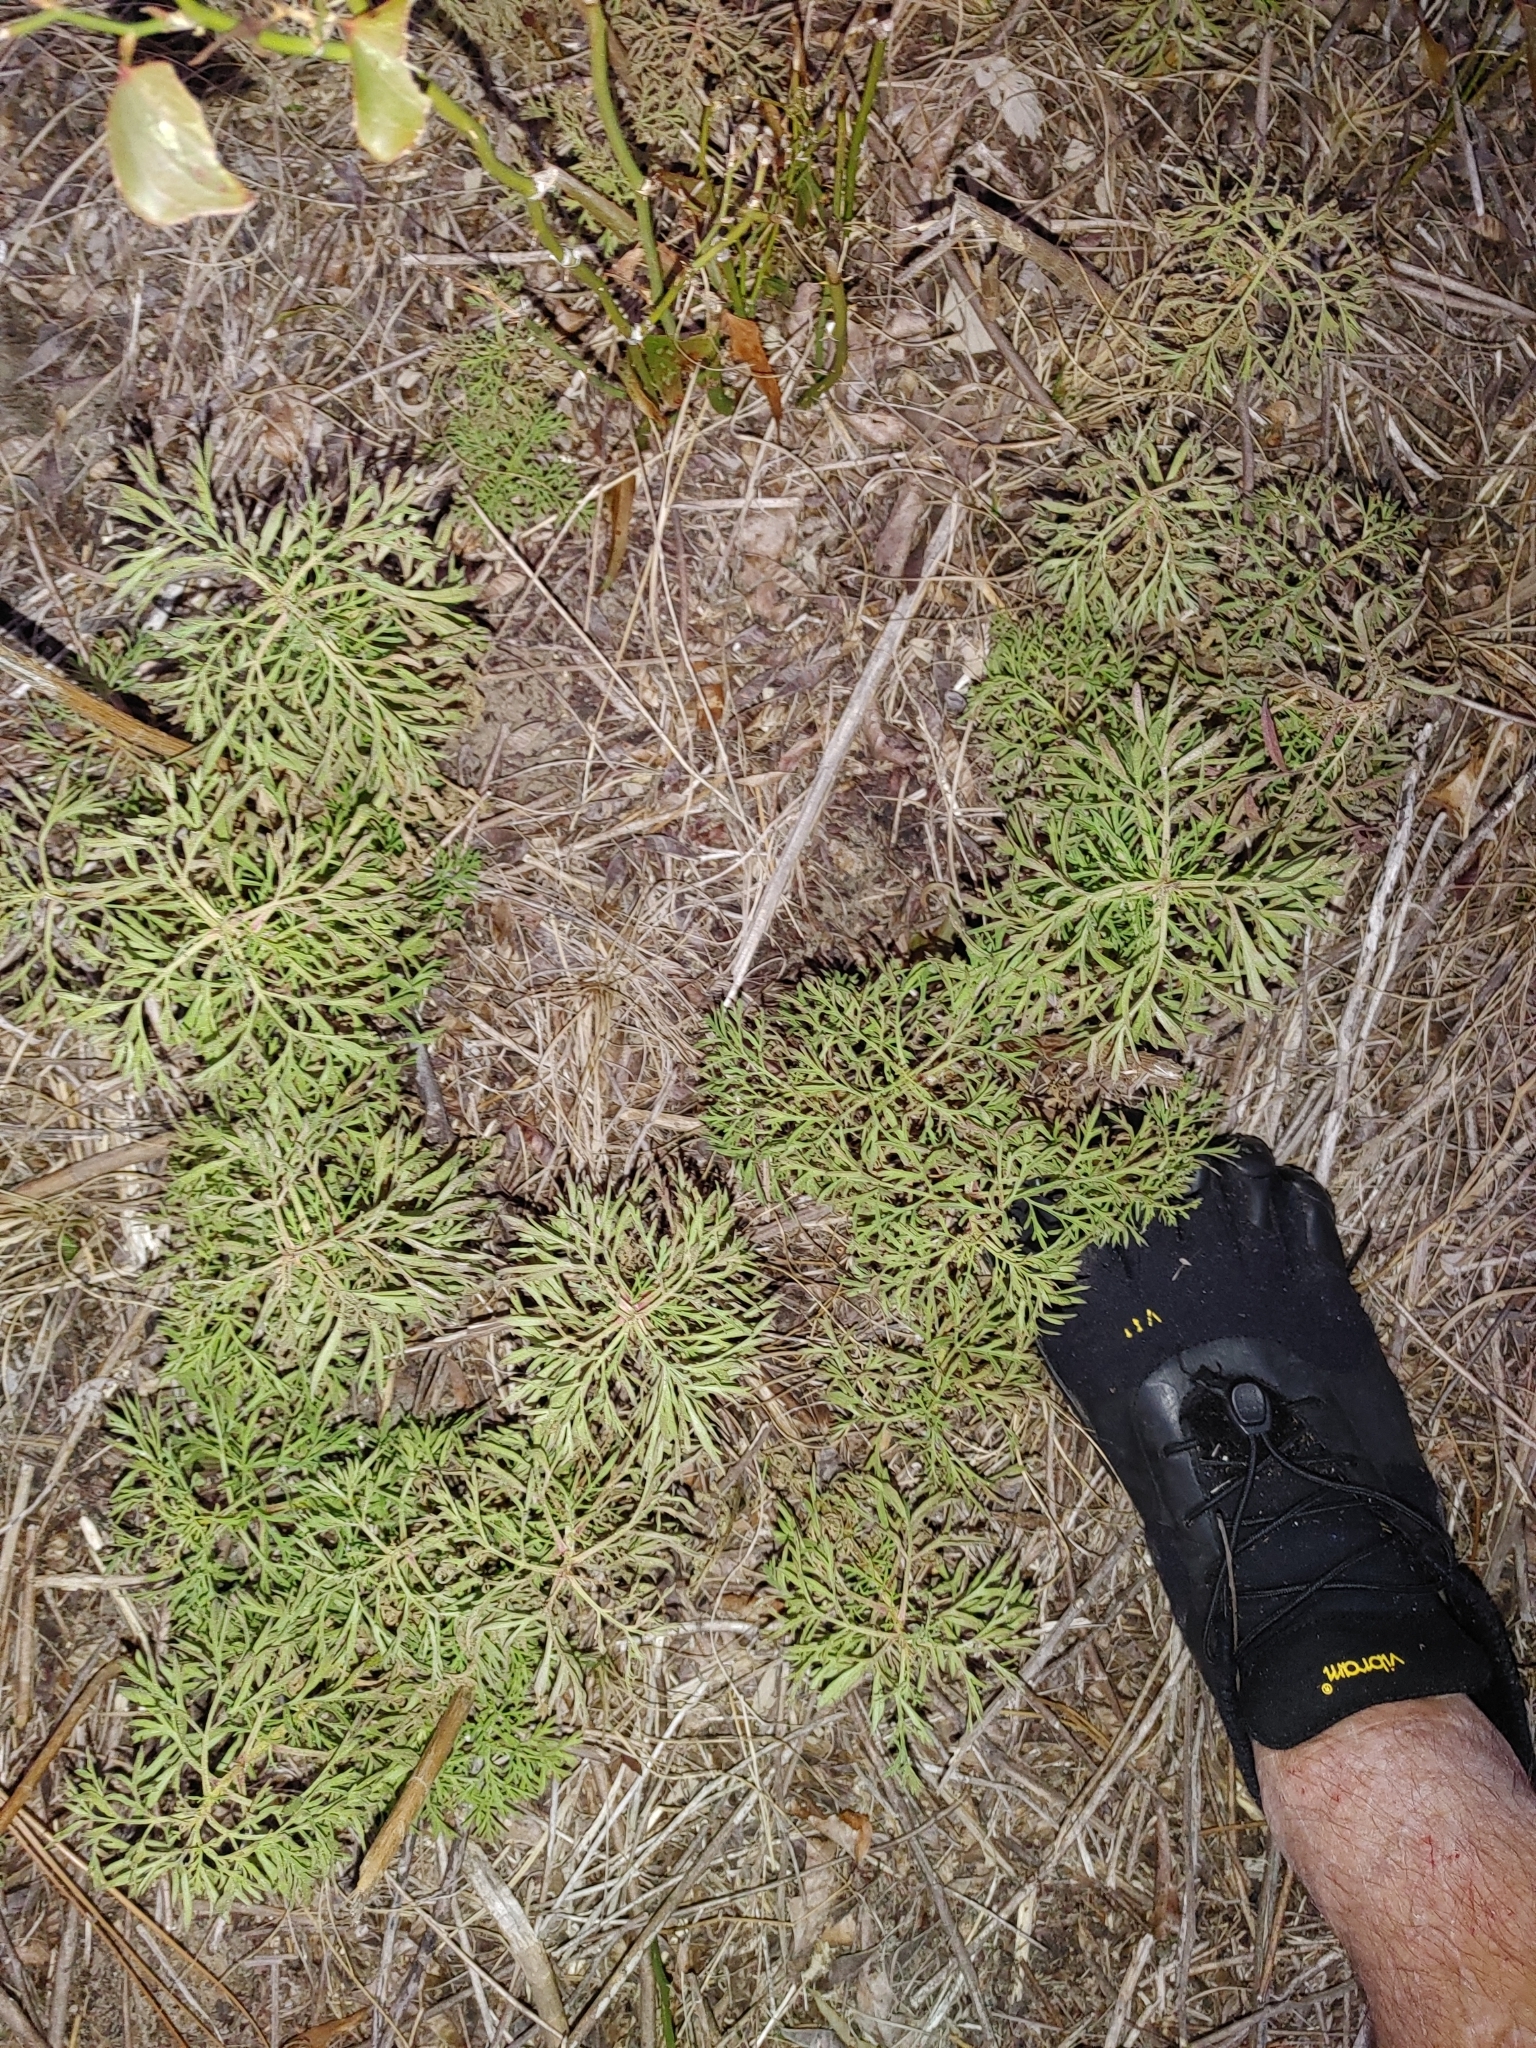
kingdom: Plantae
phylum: Tracheophyta
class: Magnoliopsida
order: Asterales
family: Asteraceae
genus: Eupatorium
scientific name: Eupatorium compositifolium
